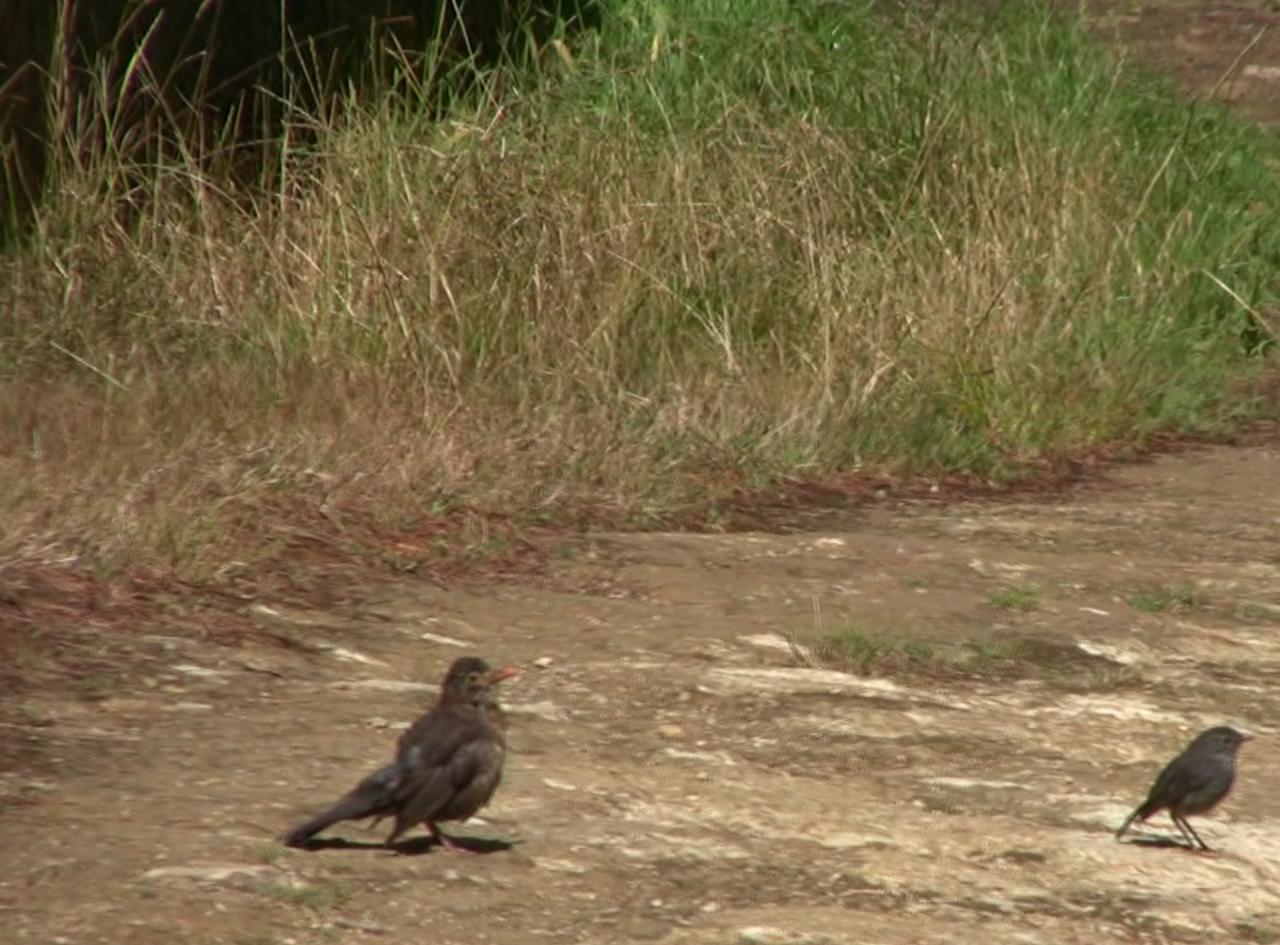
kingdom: Animalia
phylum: Chordata
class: Aves
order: Passeriformes
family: Petroicidae
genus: Petroica
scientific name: Petroica australis
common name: New zealand robin
